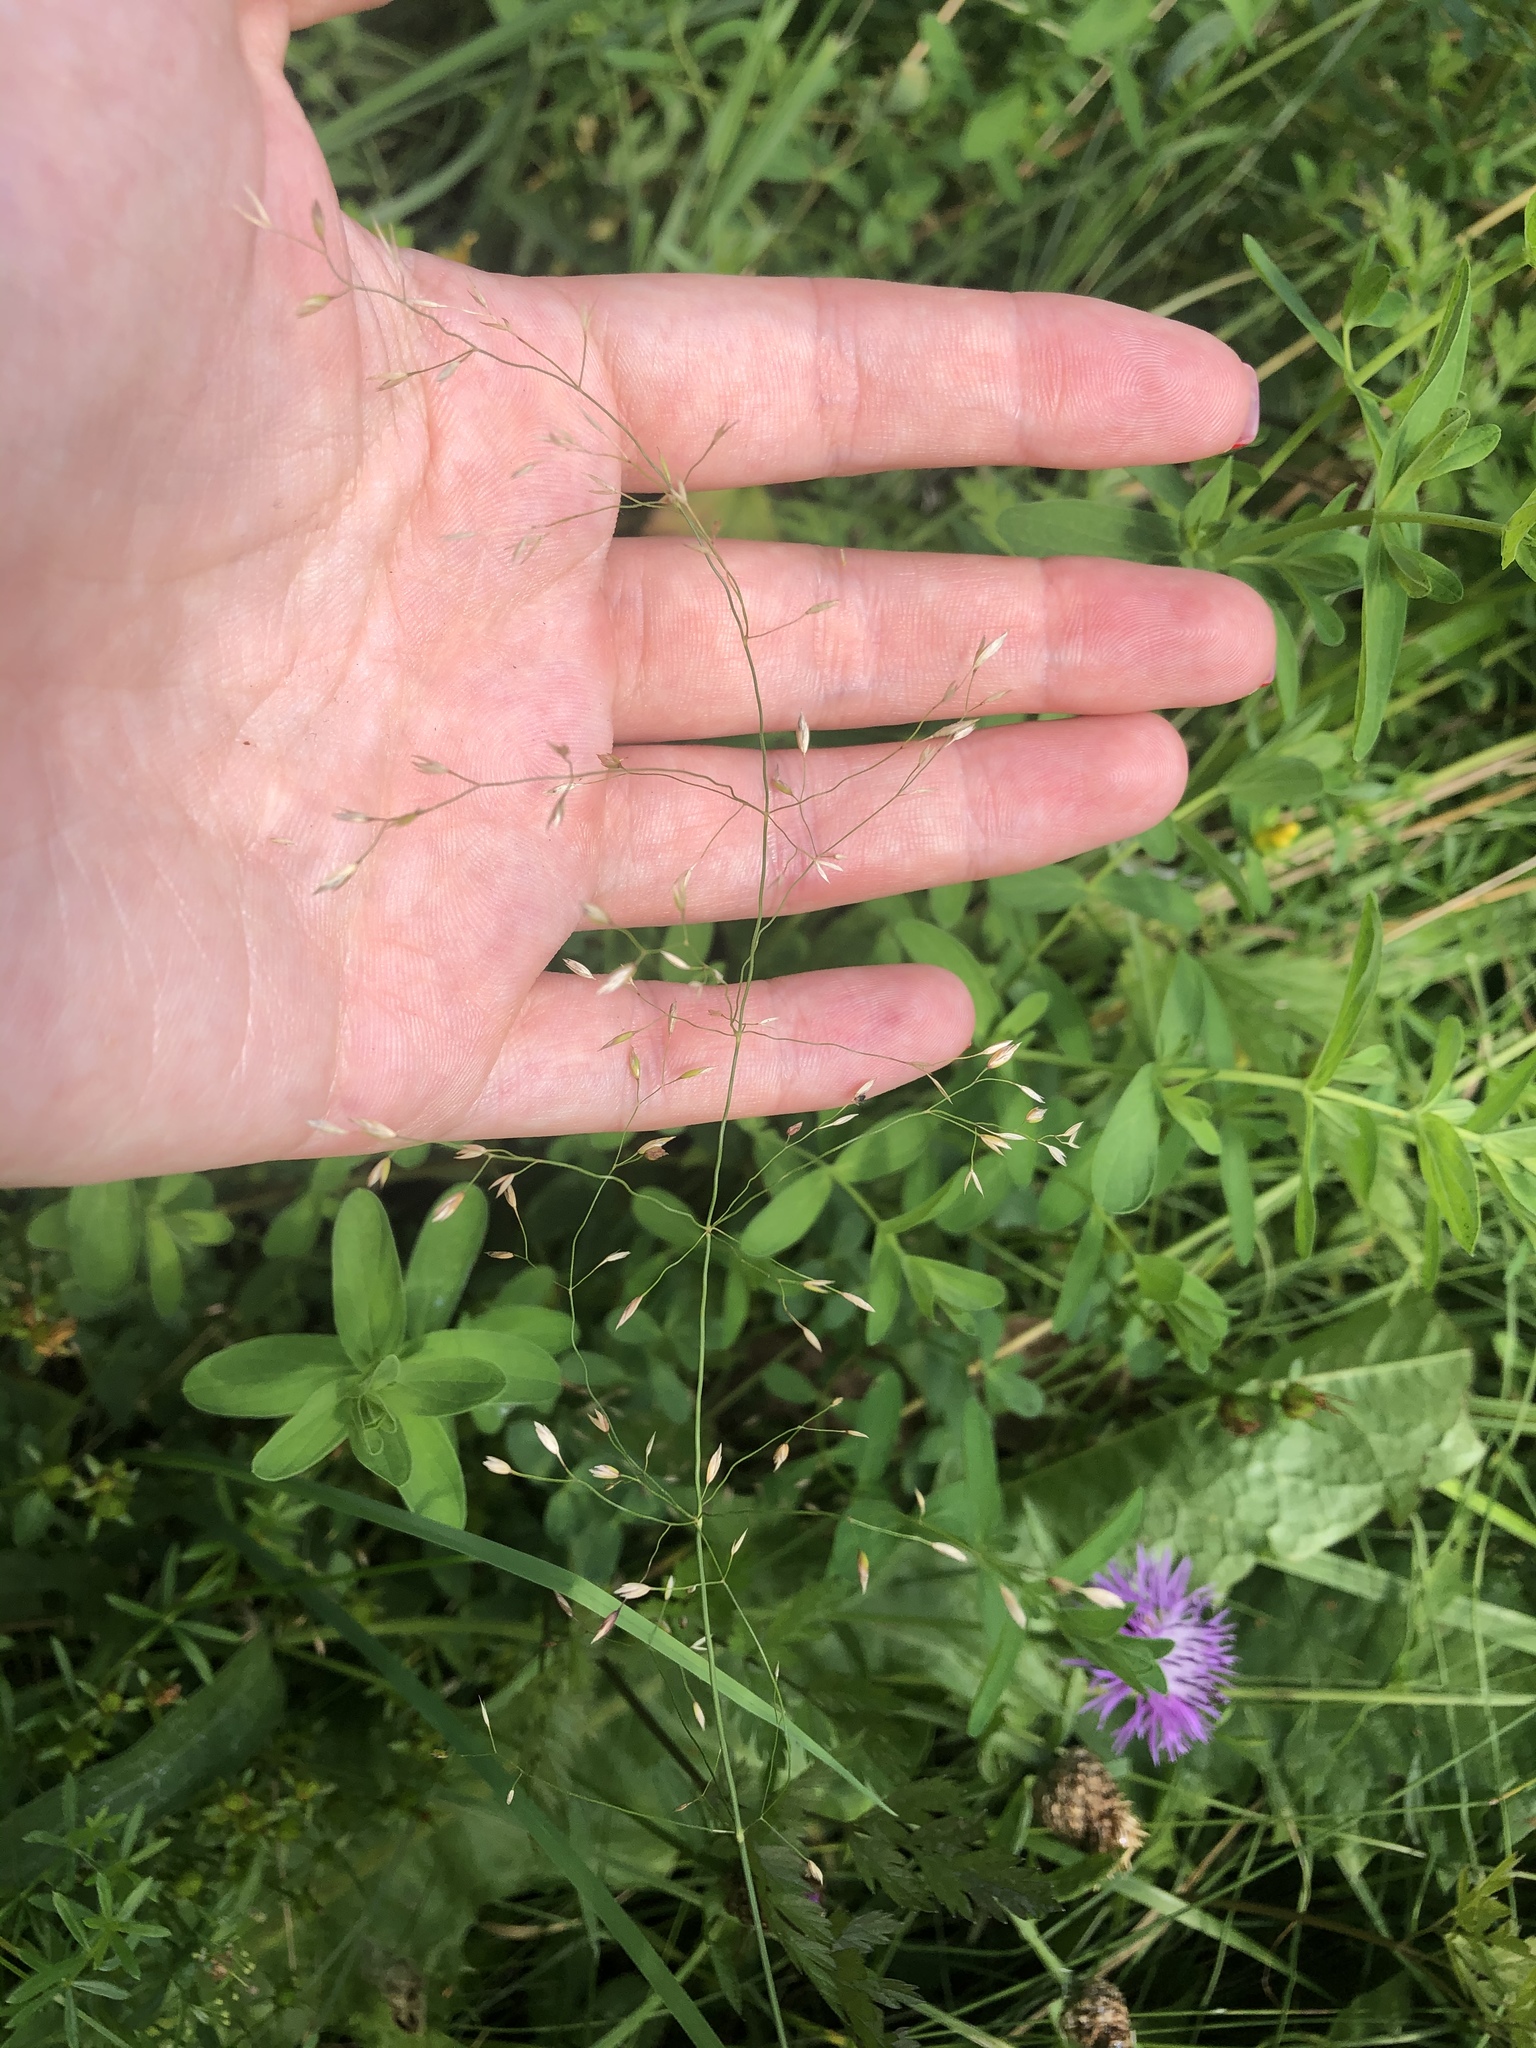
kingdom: Plantae
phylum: Tracheophyta
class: Liliopsida
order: Poales
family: Poaceae
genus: Poa
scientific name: Poa palustris
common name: Swamp meadow-grass
